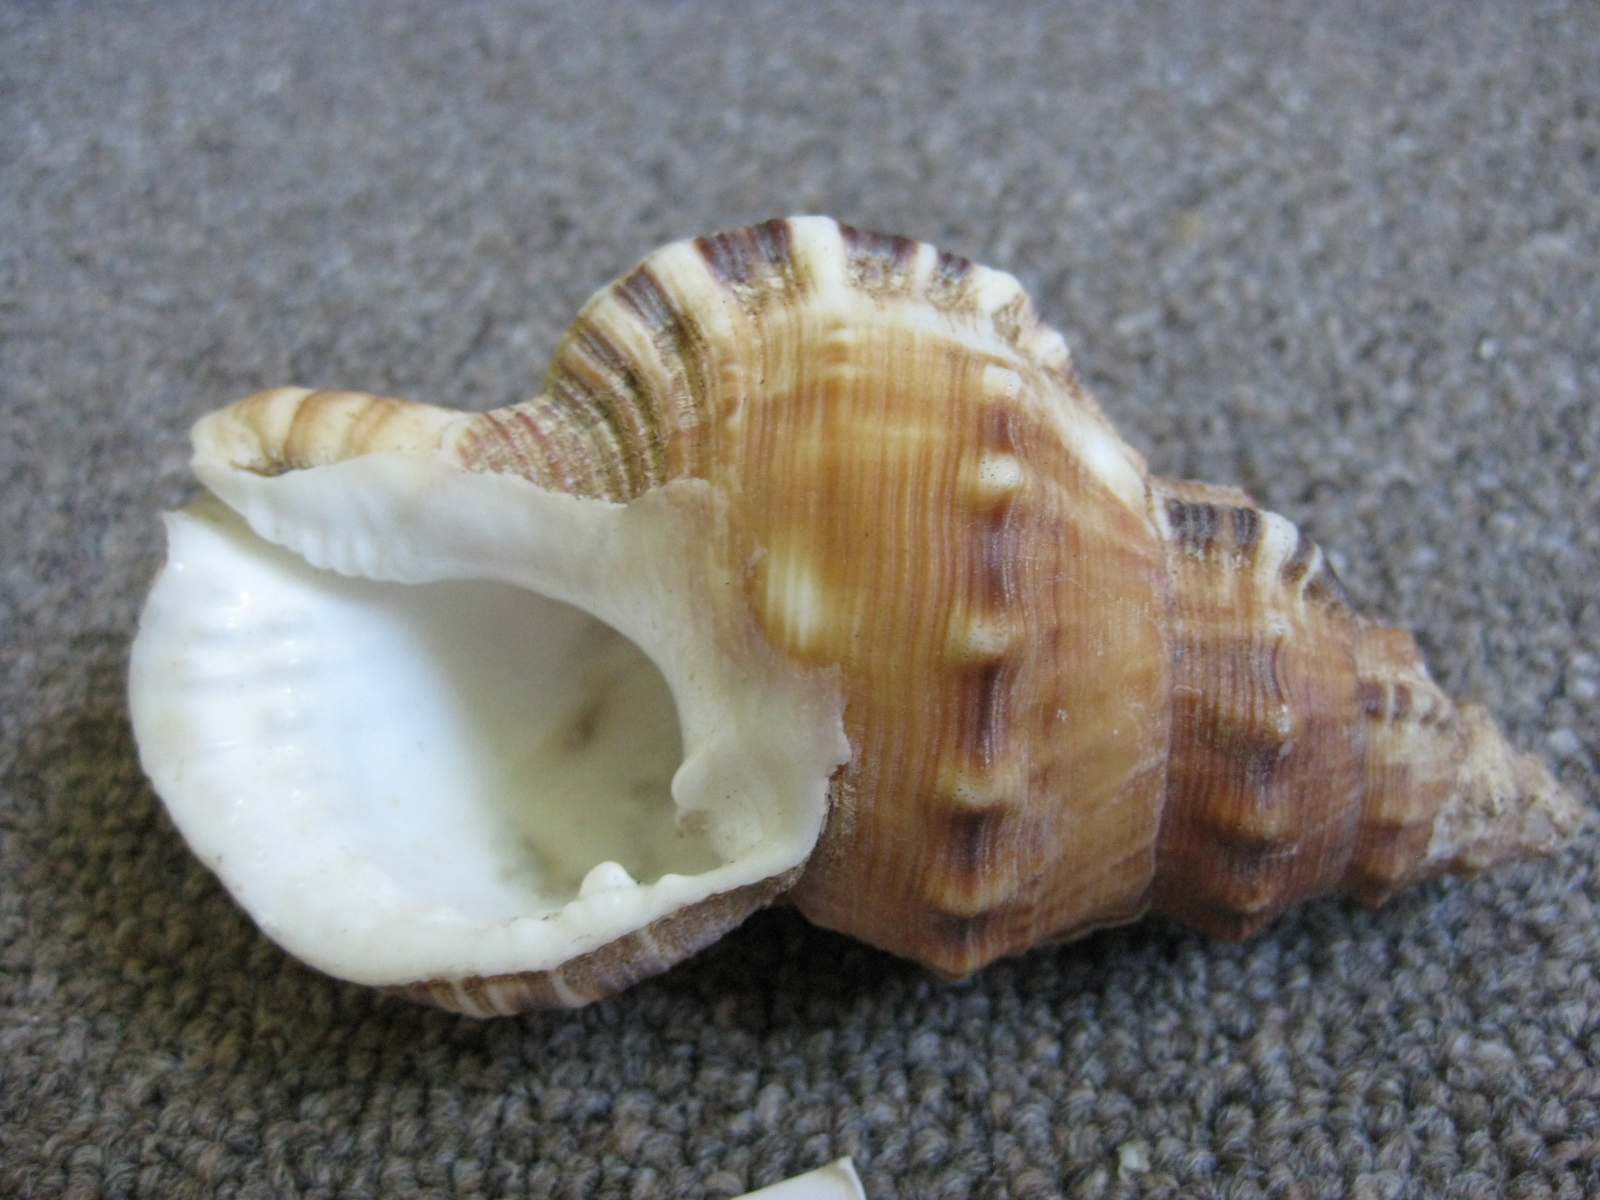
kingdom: Animalia
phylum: Mollusca
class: Gastropoda
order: Littorinimorpha
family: Ranellidae
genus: Ranella
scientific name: Ranella australasia
